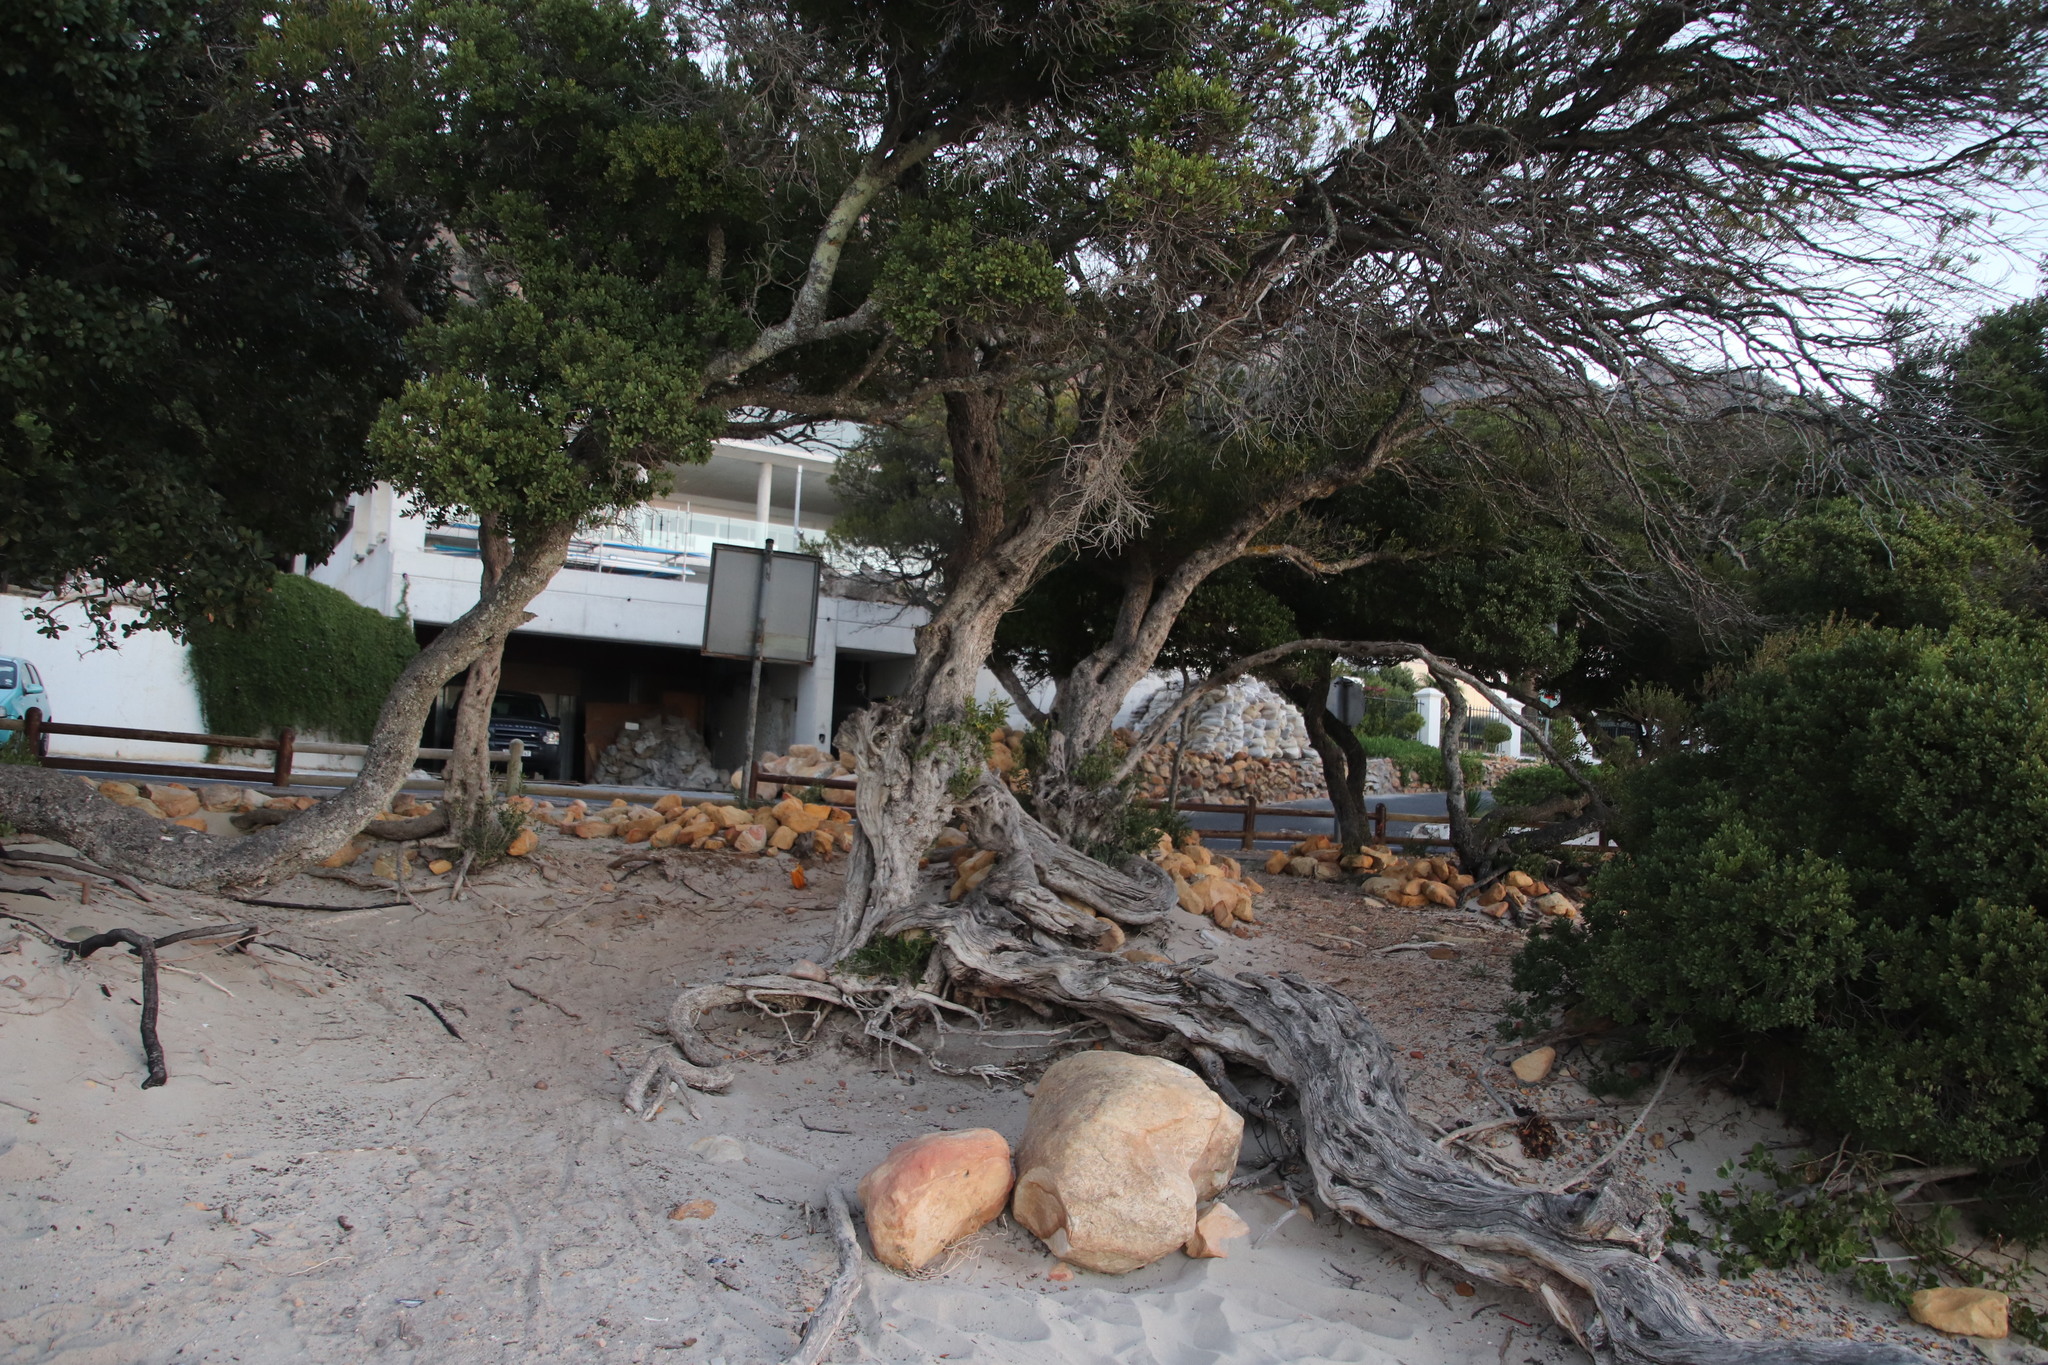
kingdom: Plantae
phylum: Tracheophyta
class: Magnoliopsida
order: Ericales
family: Ebenaceae
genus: Euclea
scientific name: Euclea racemosa
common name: Dune guarri
